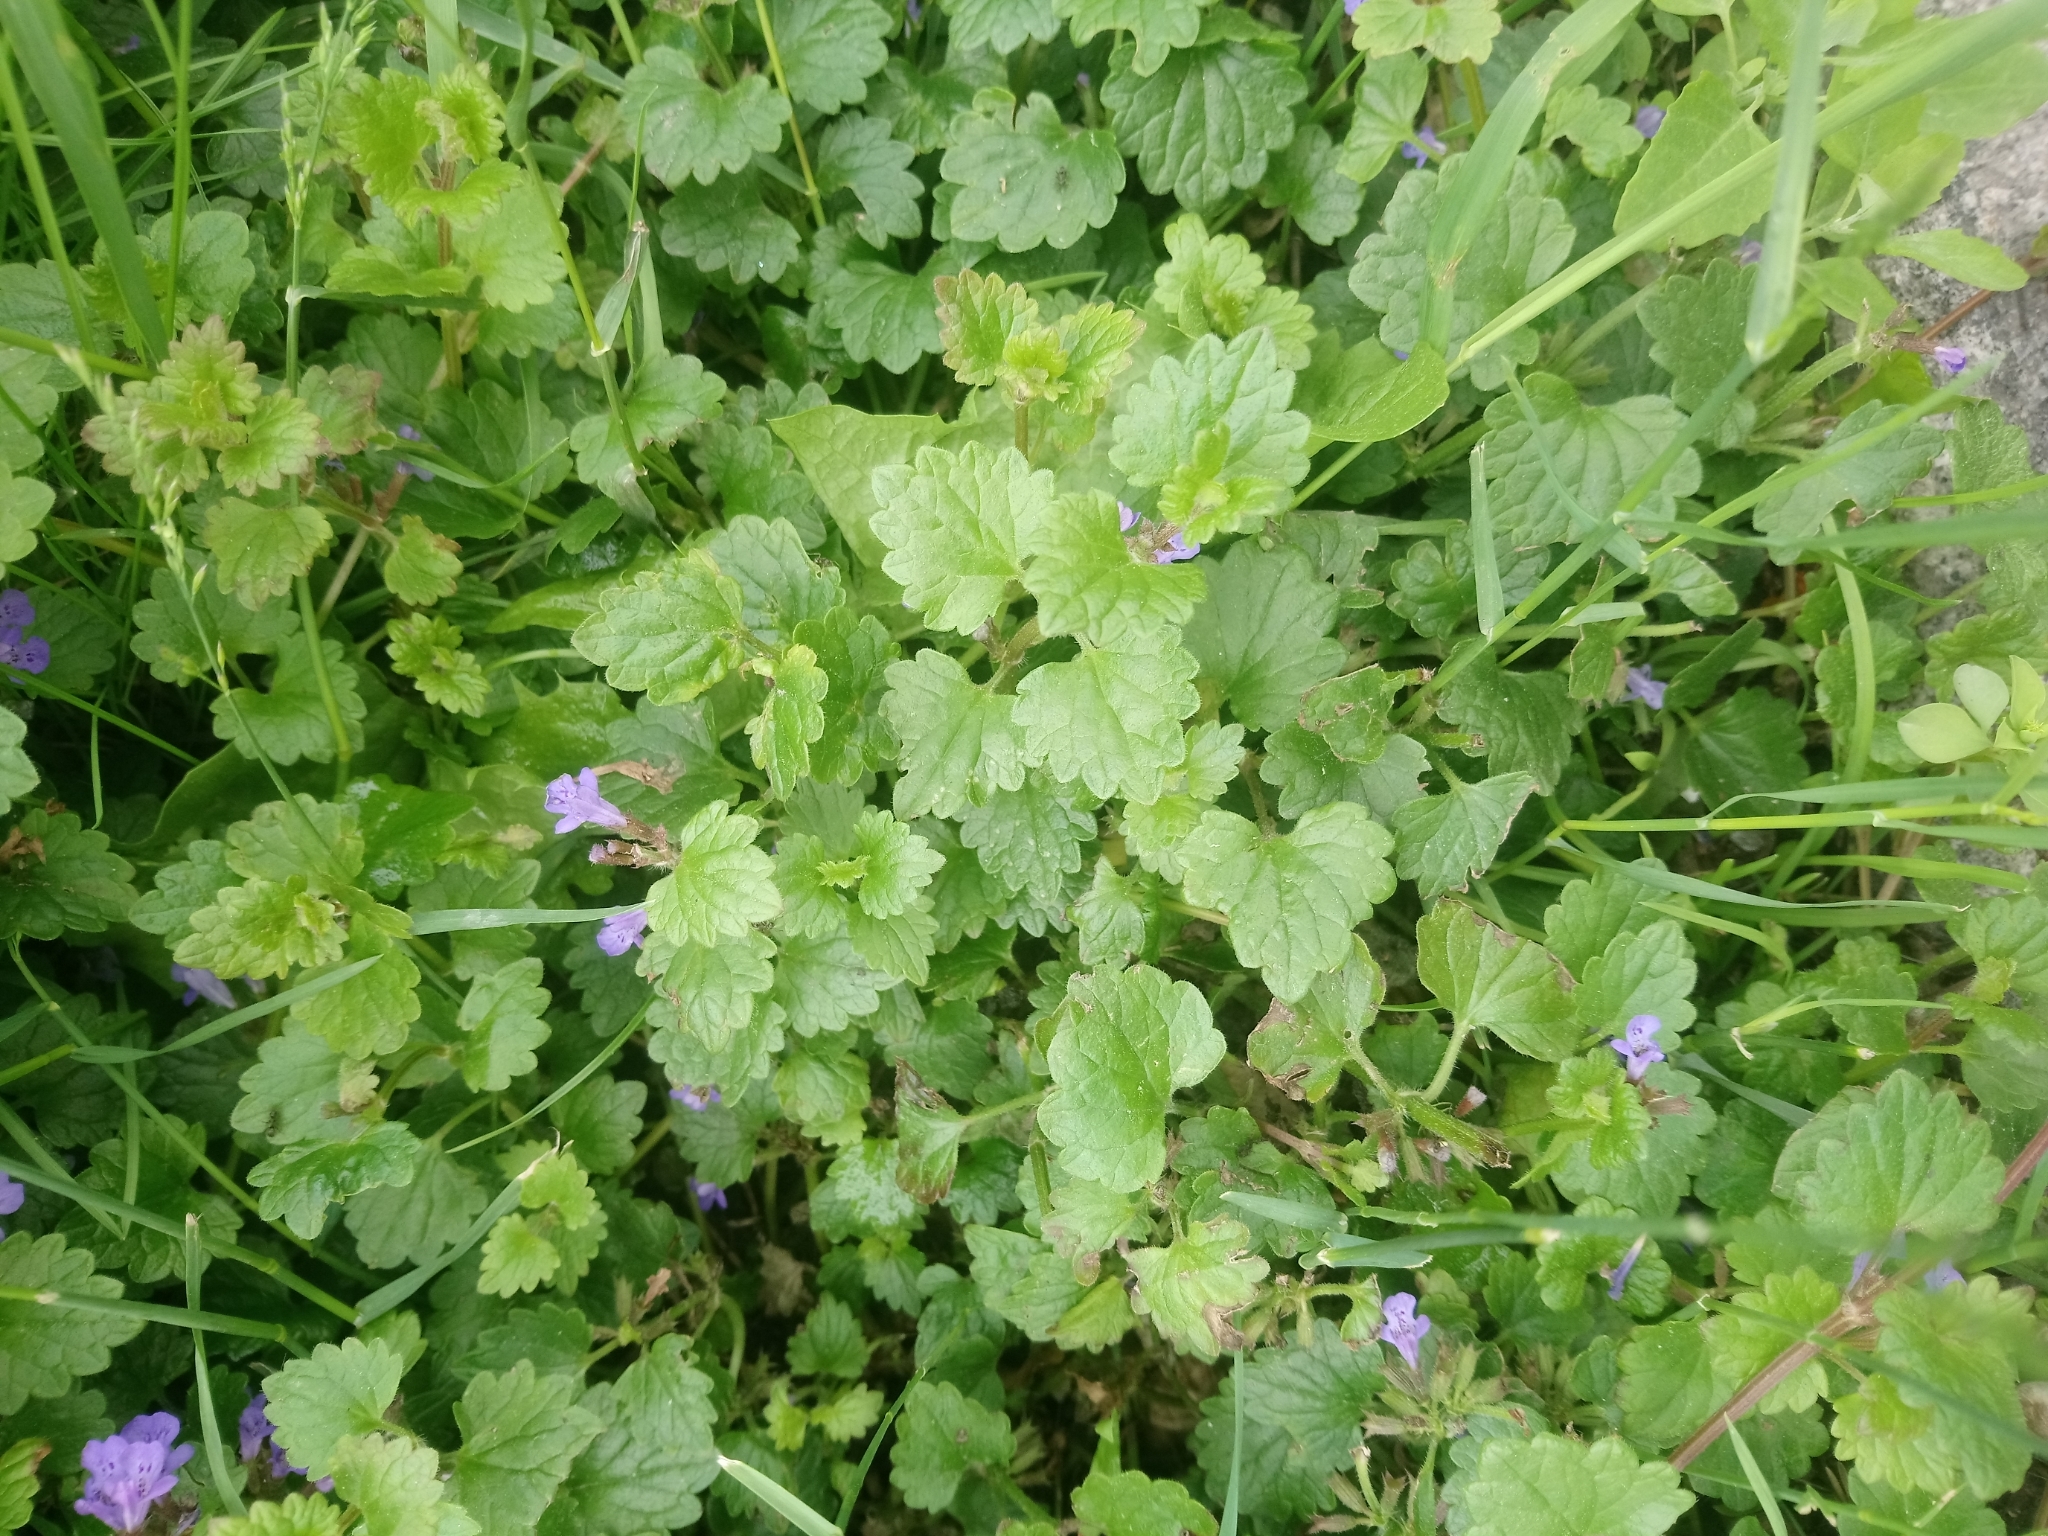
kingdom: Plantae
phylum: Tracheophyta
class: Magnoliopsida
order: Lamiales
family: Lamiaceae
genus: Glechoma
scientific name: Glechoma hederacea
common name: Ground ivy
